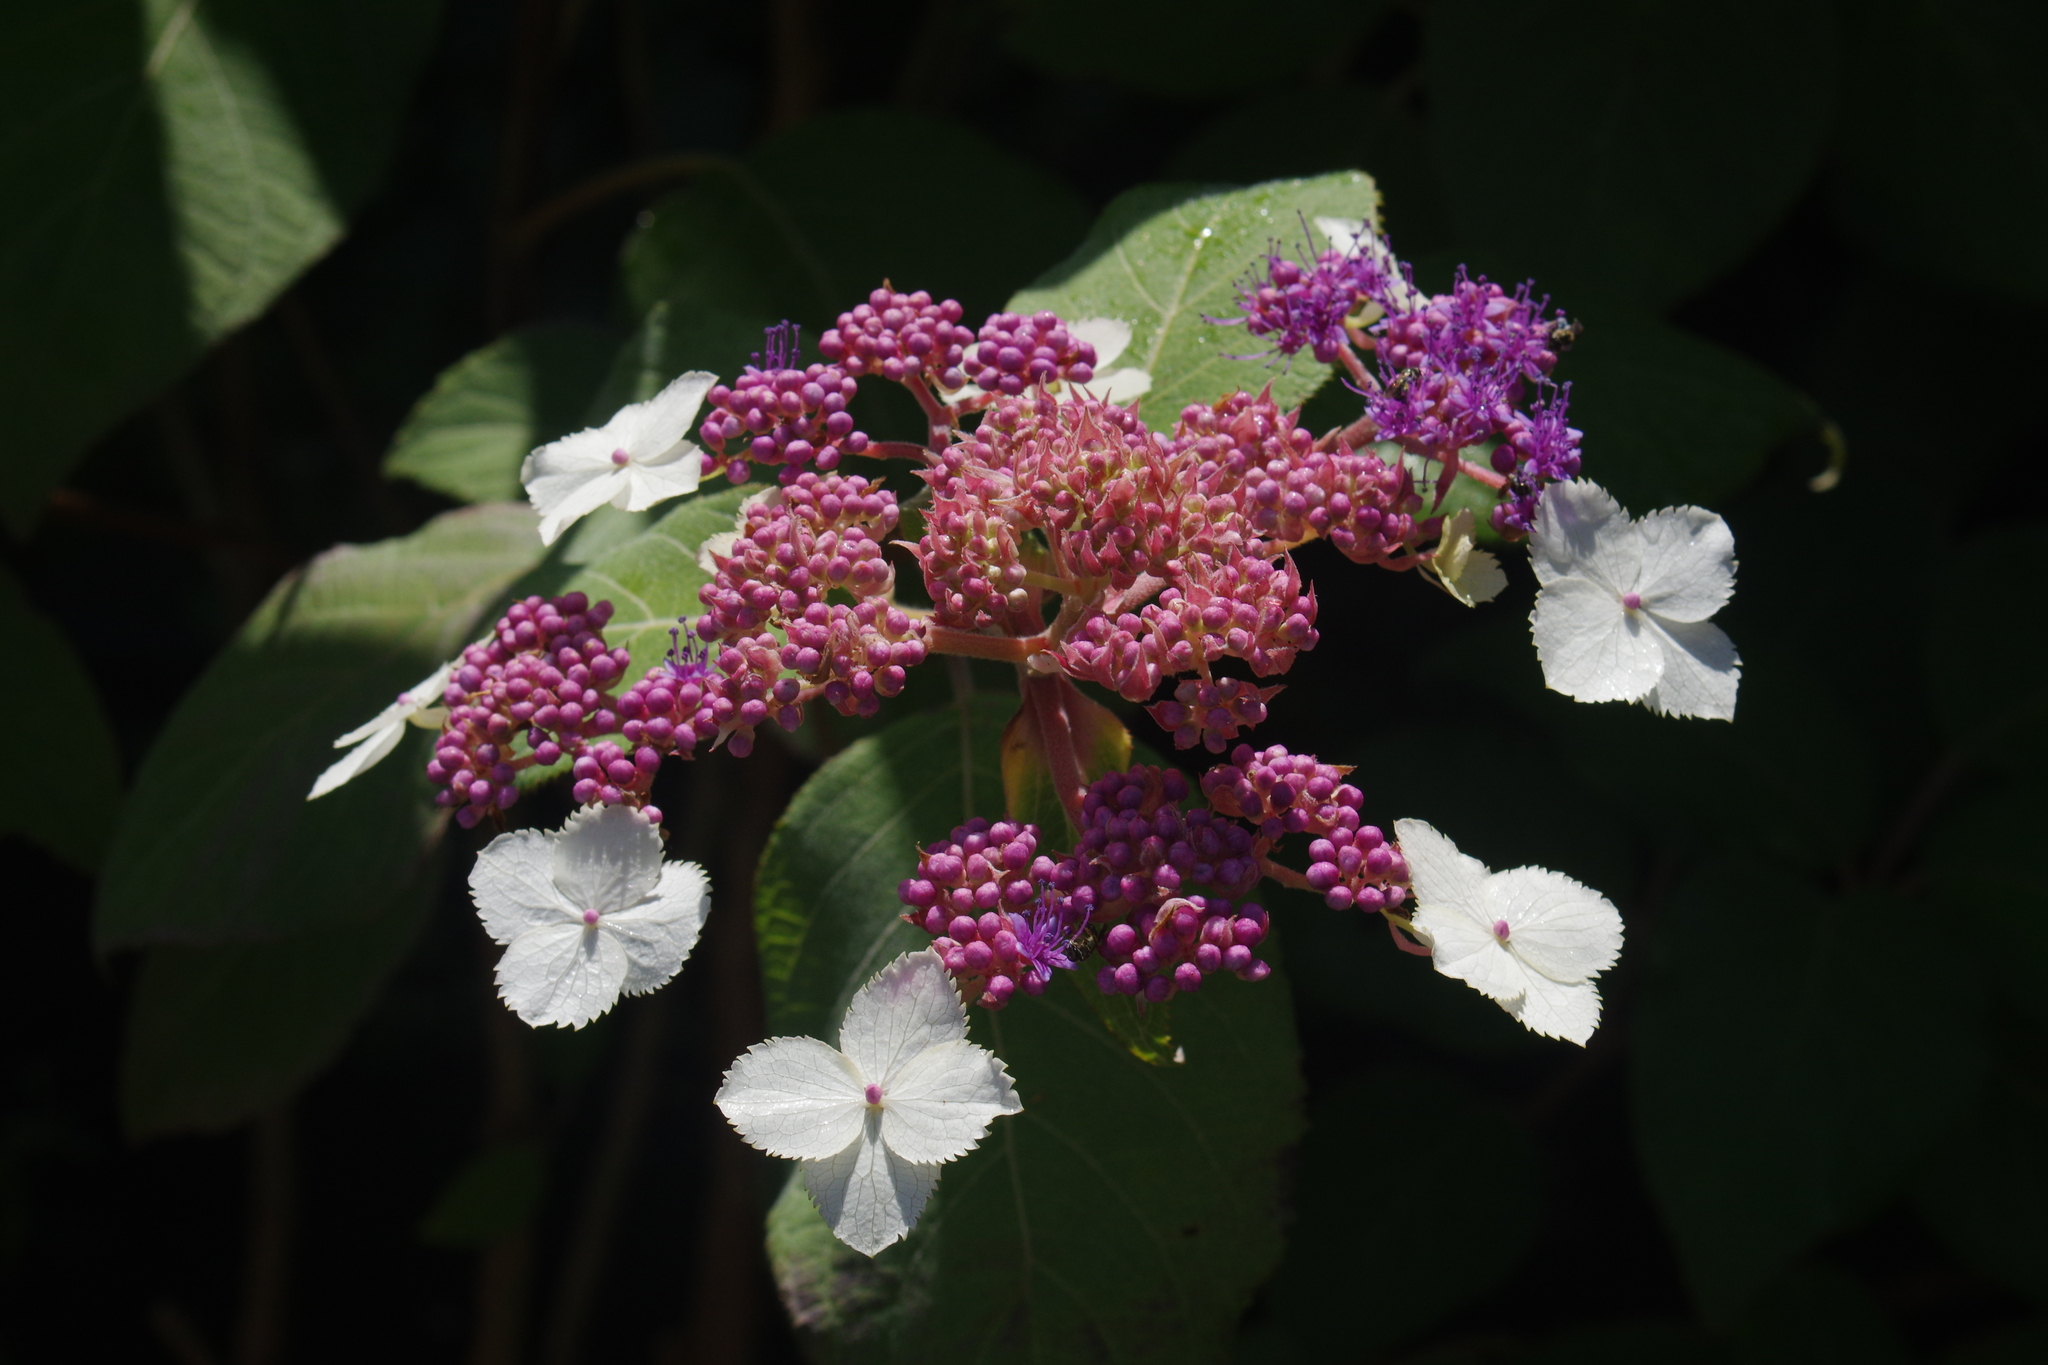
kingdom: Plantae
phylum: Tracheophyta
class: Magnoliopsida
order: Cornales
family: Hydrangeaceae
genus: Hydrangea
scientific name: Hydrangea aspera
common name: Rough-leaf hydrangea
